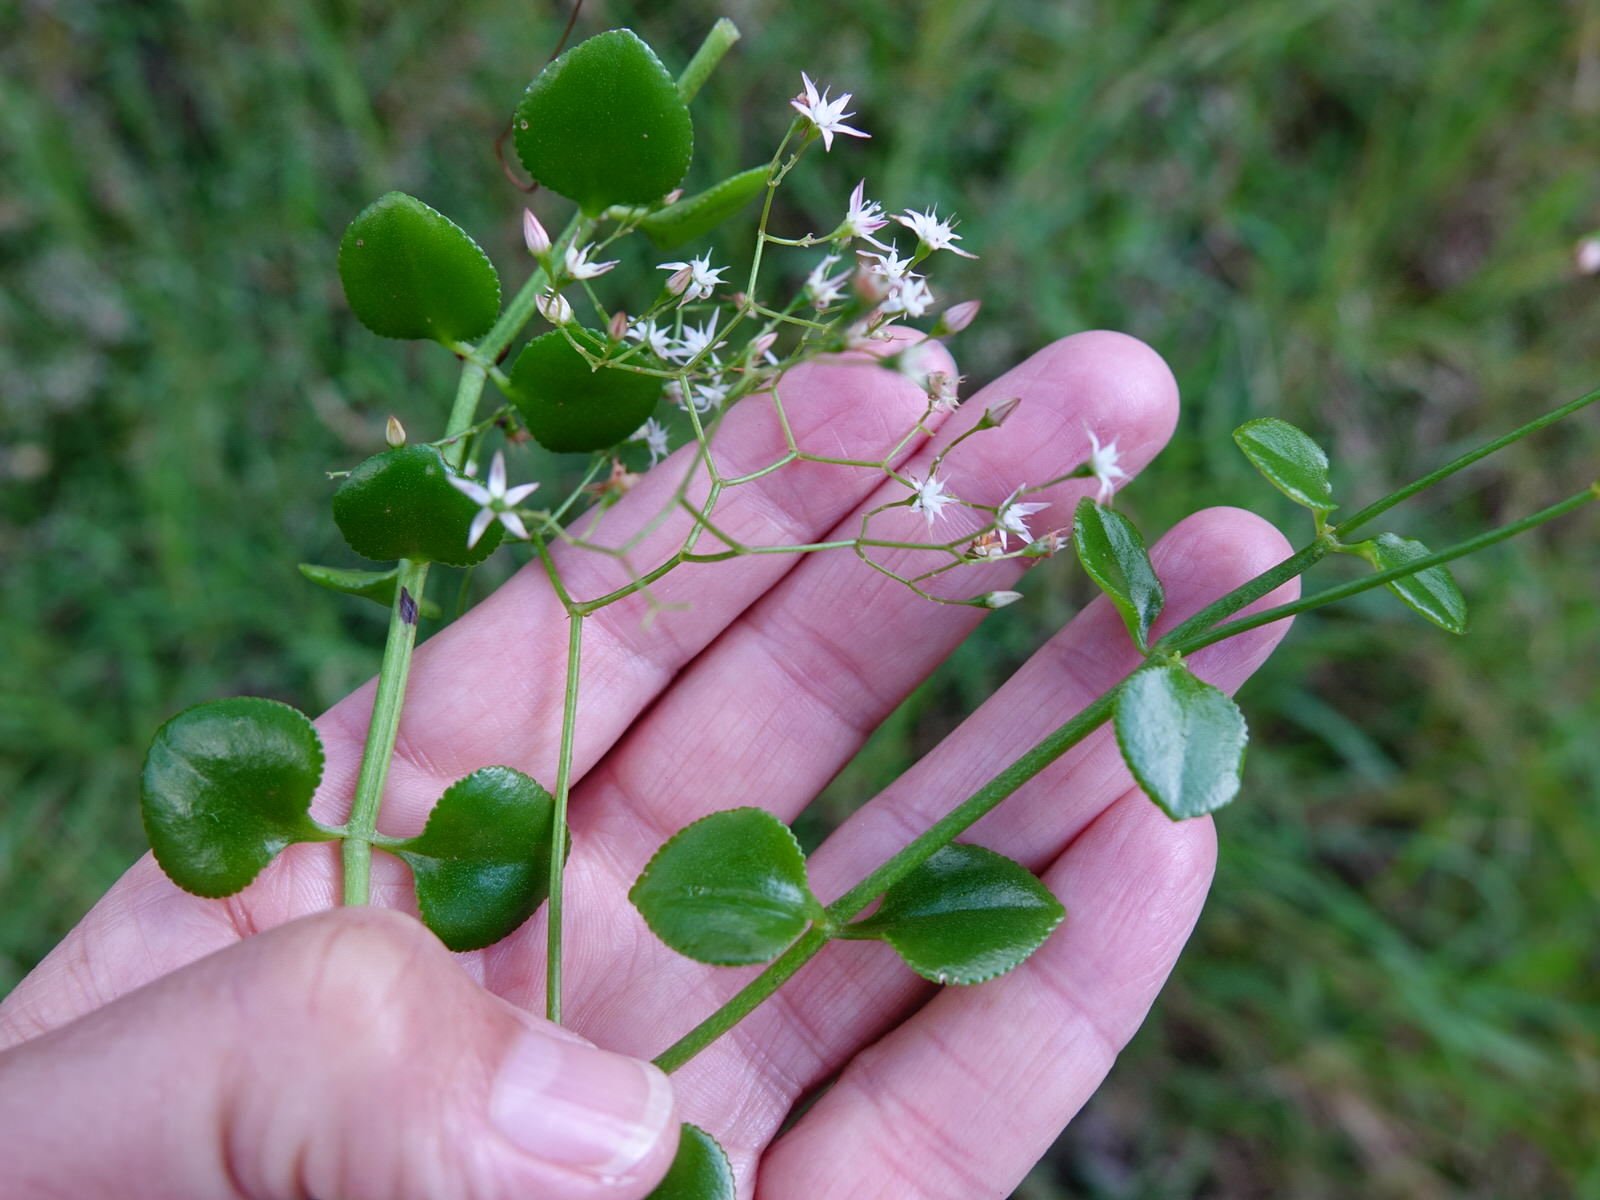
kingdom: Plantae
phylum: Tracheophyta
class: Magnoliopsida
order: Saxifragales
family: Crassulaceae
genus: Crassula
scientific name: Crassula spathulata
